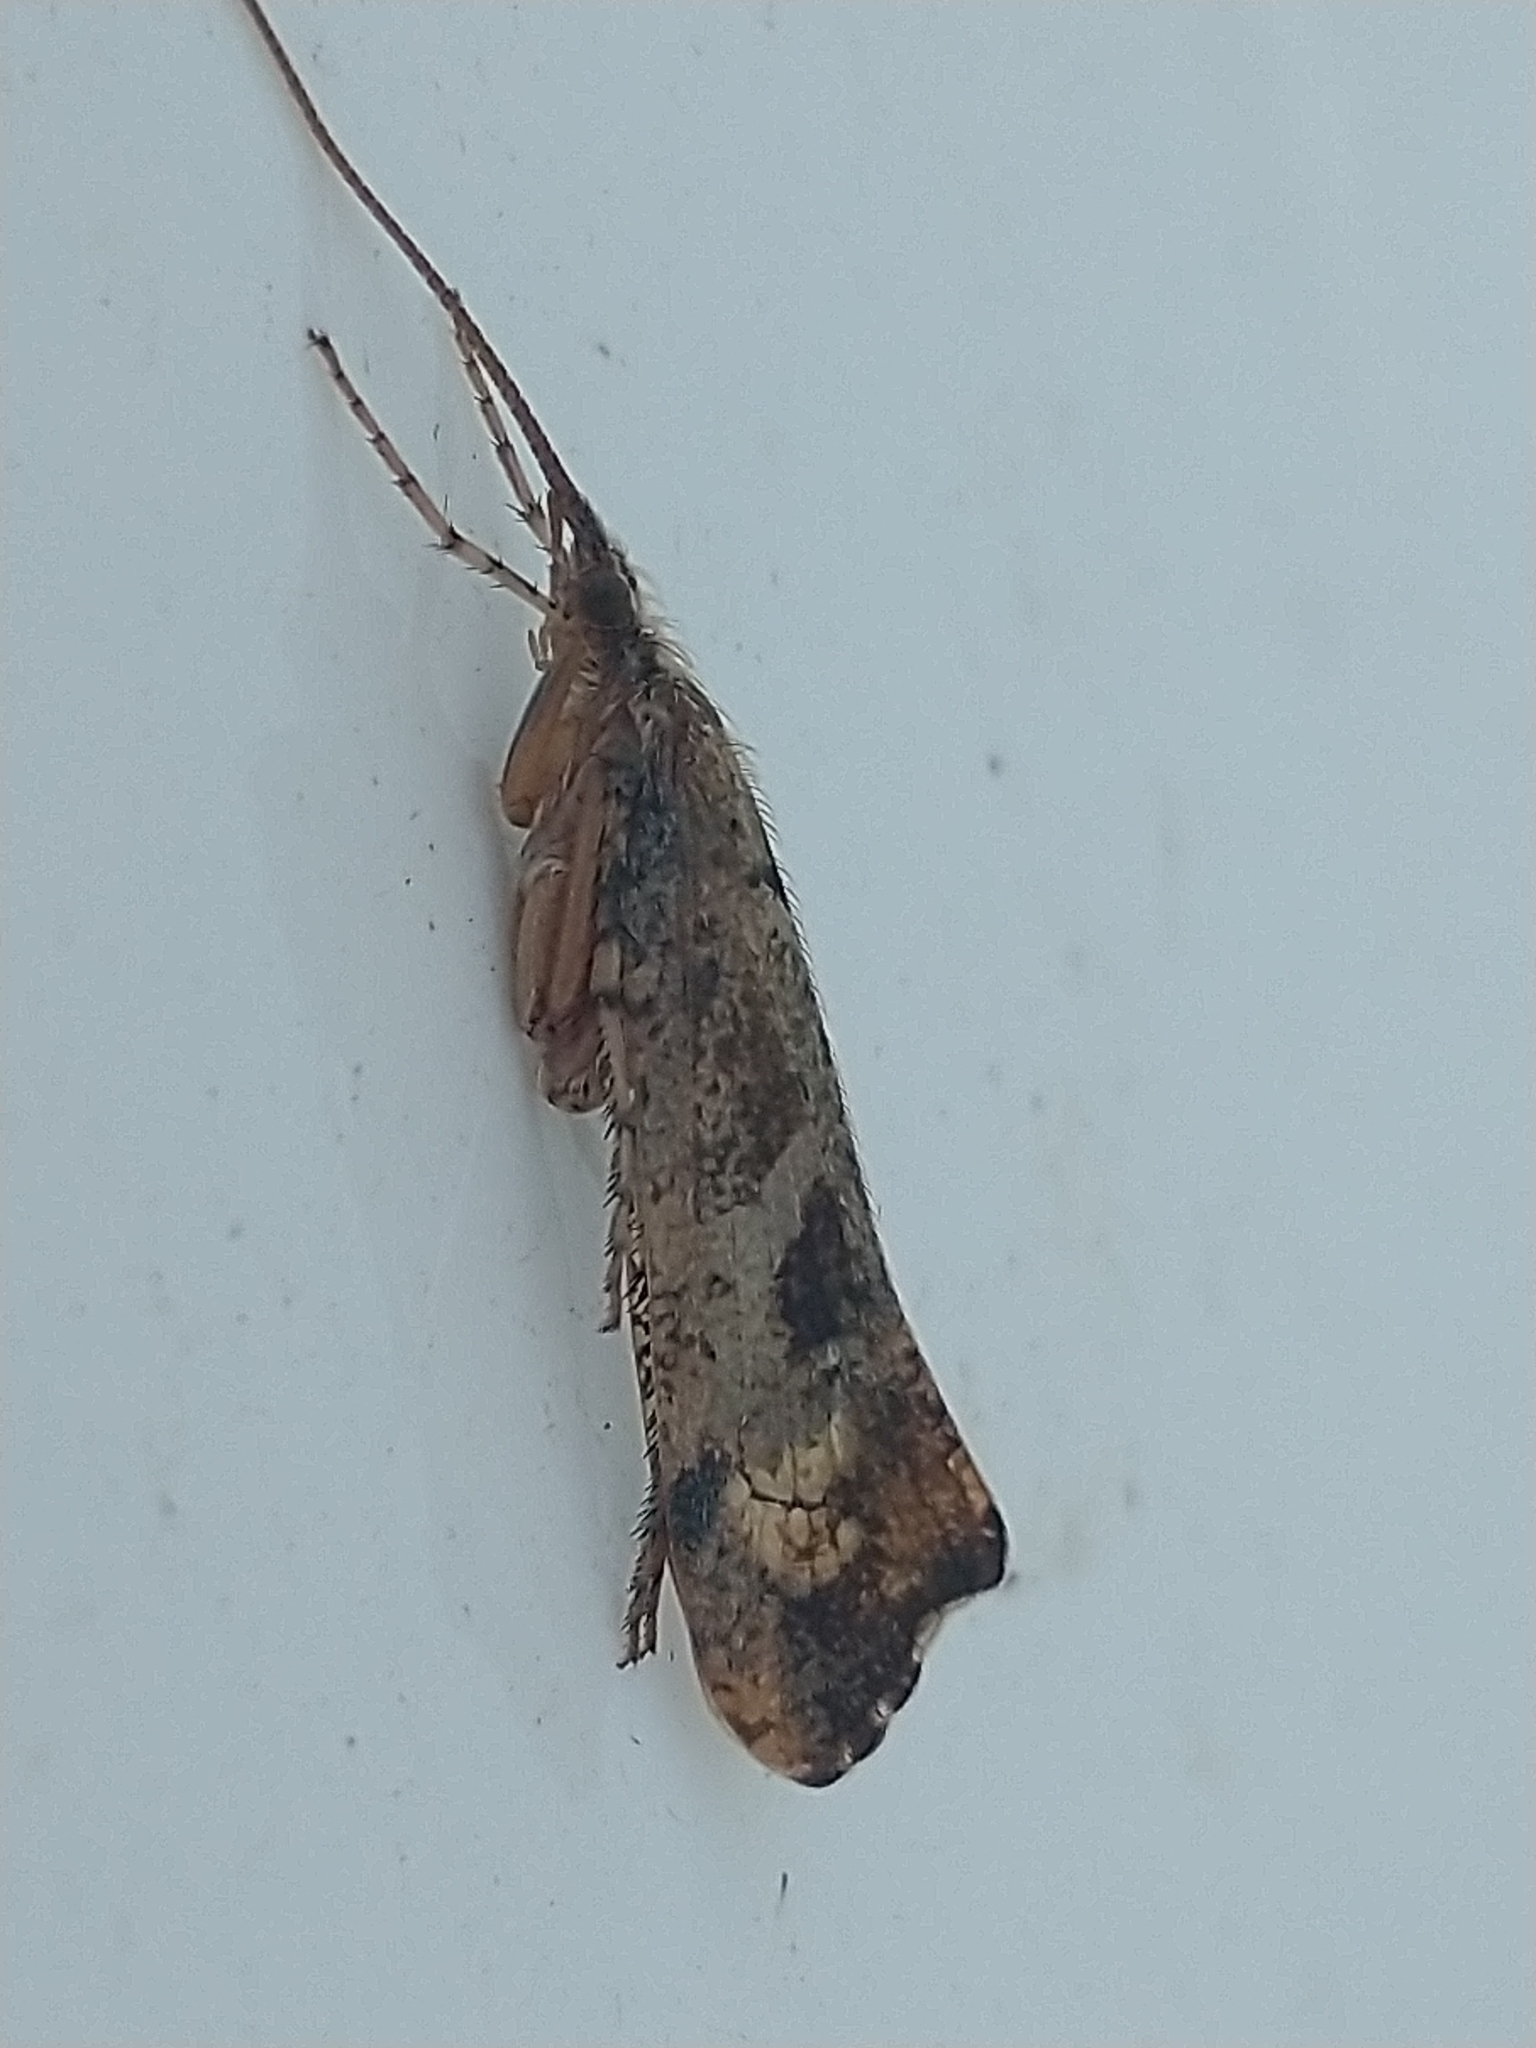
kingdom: Animalia
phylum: Arthropoda
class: Insecta
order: Trichoptera
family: Limnephilidae
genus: Glyphotaelius
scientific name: Glyphotaelius pellucidus
